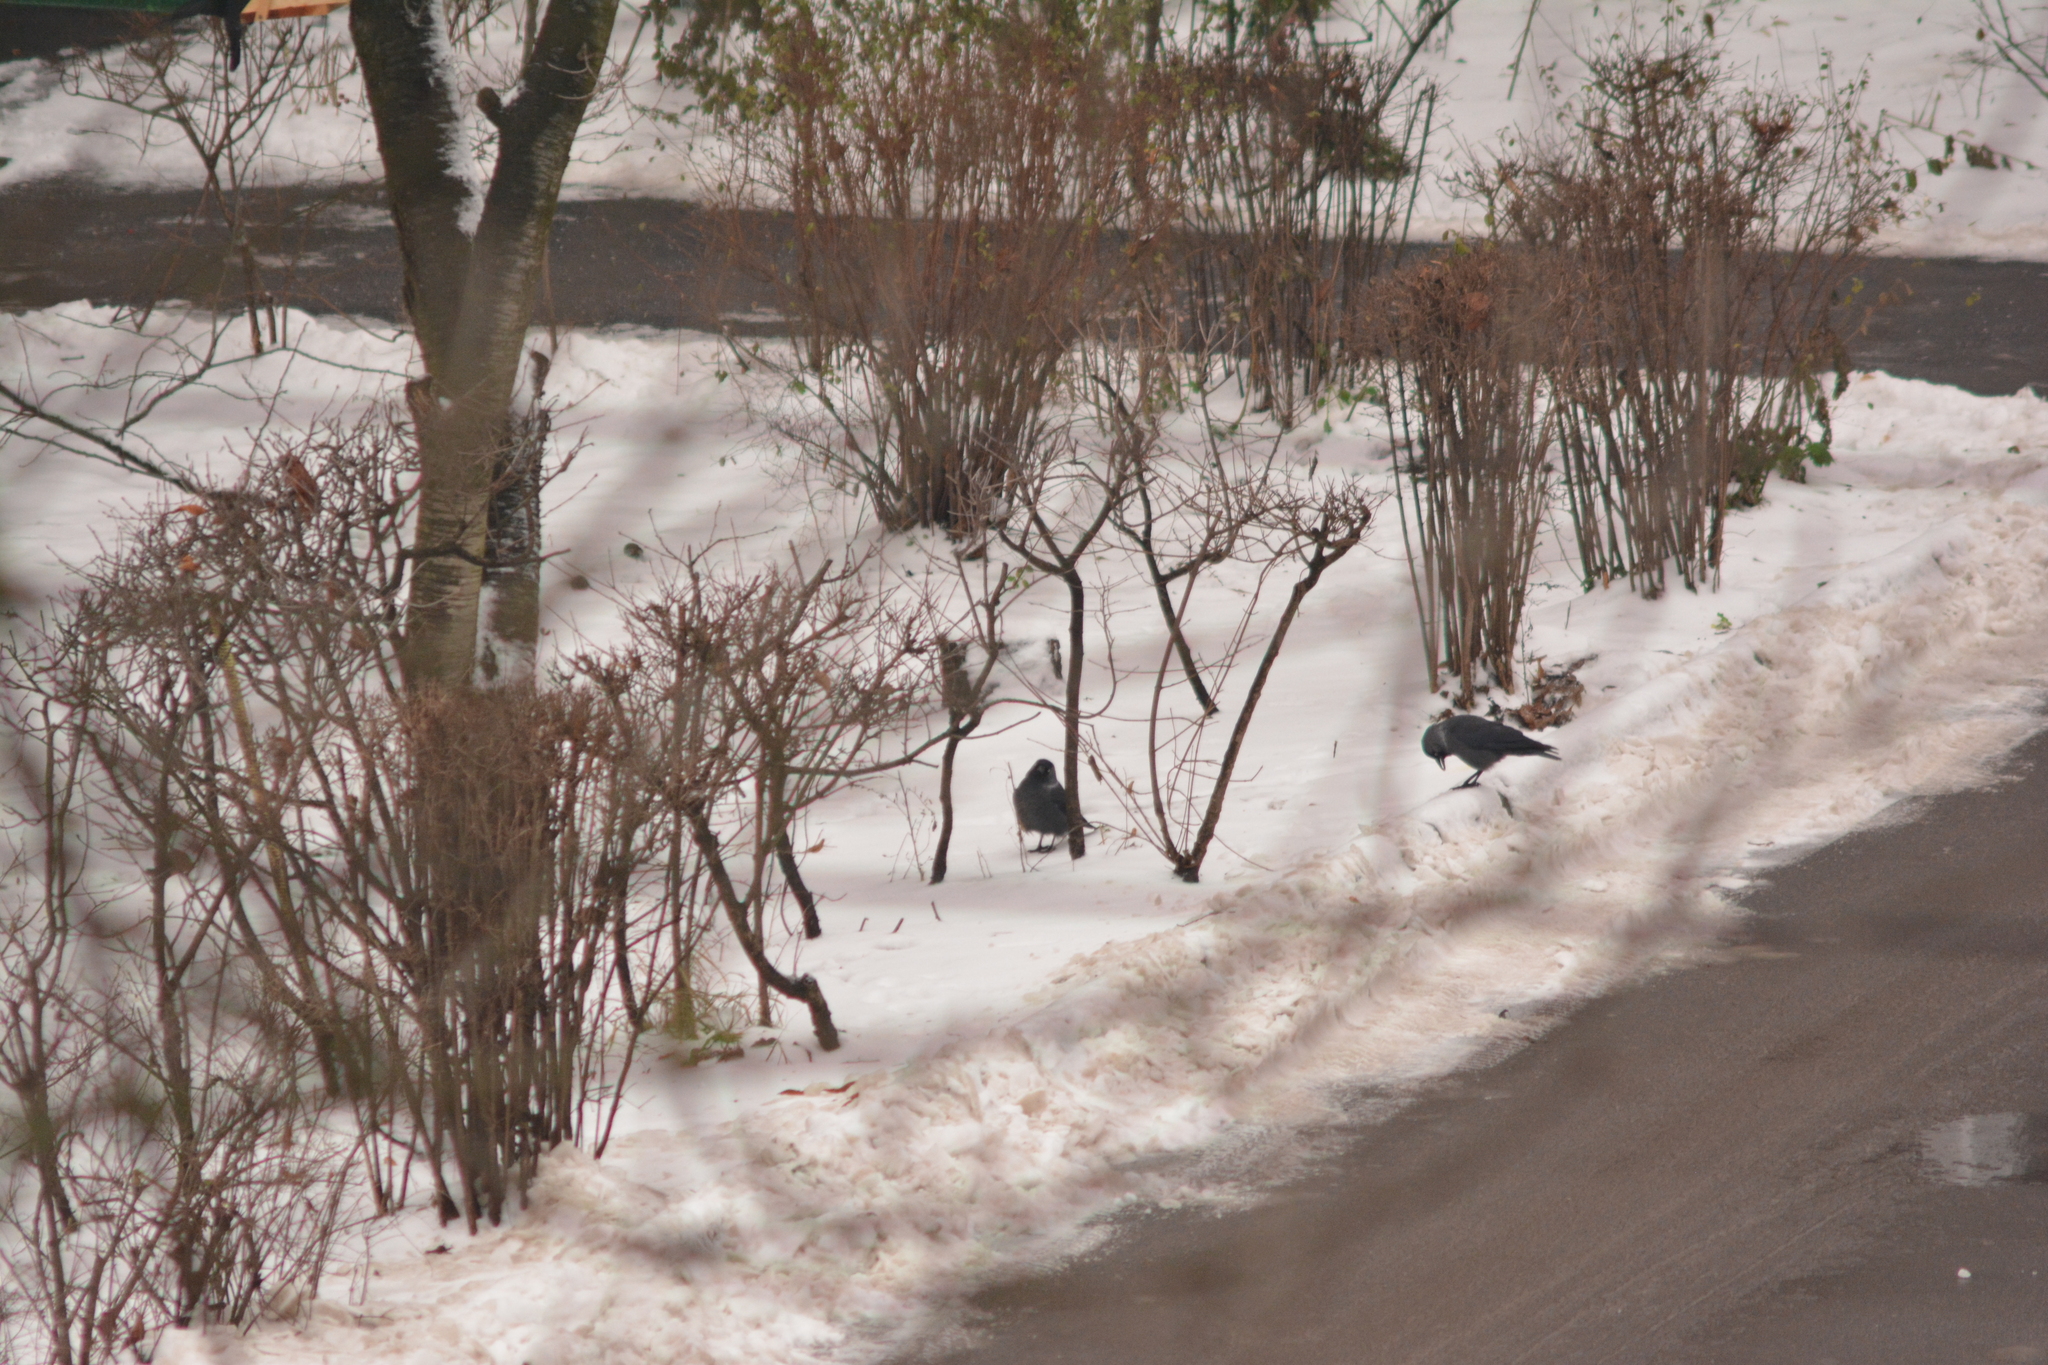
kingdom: Animalia
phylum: Chordata
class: Aves
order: Passeriformes
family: Corvidae
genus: Coloeus
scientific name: Coloeus monedula
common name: Western jackdaw
